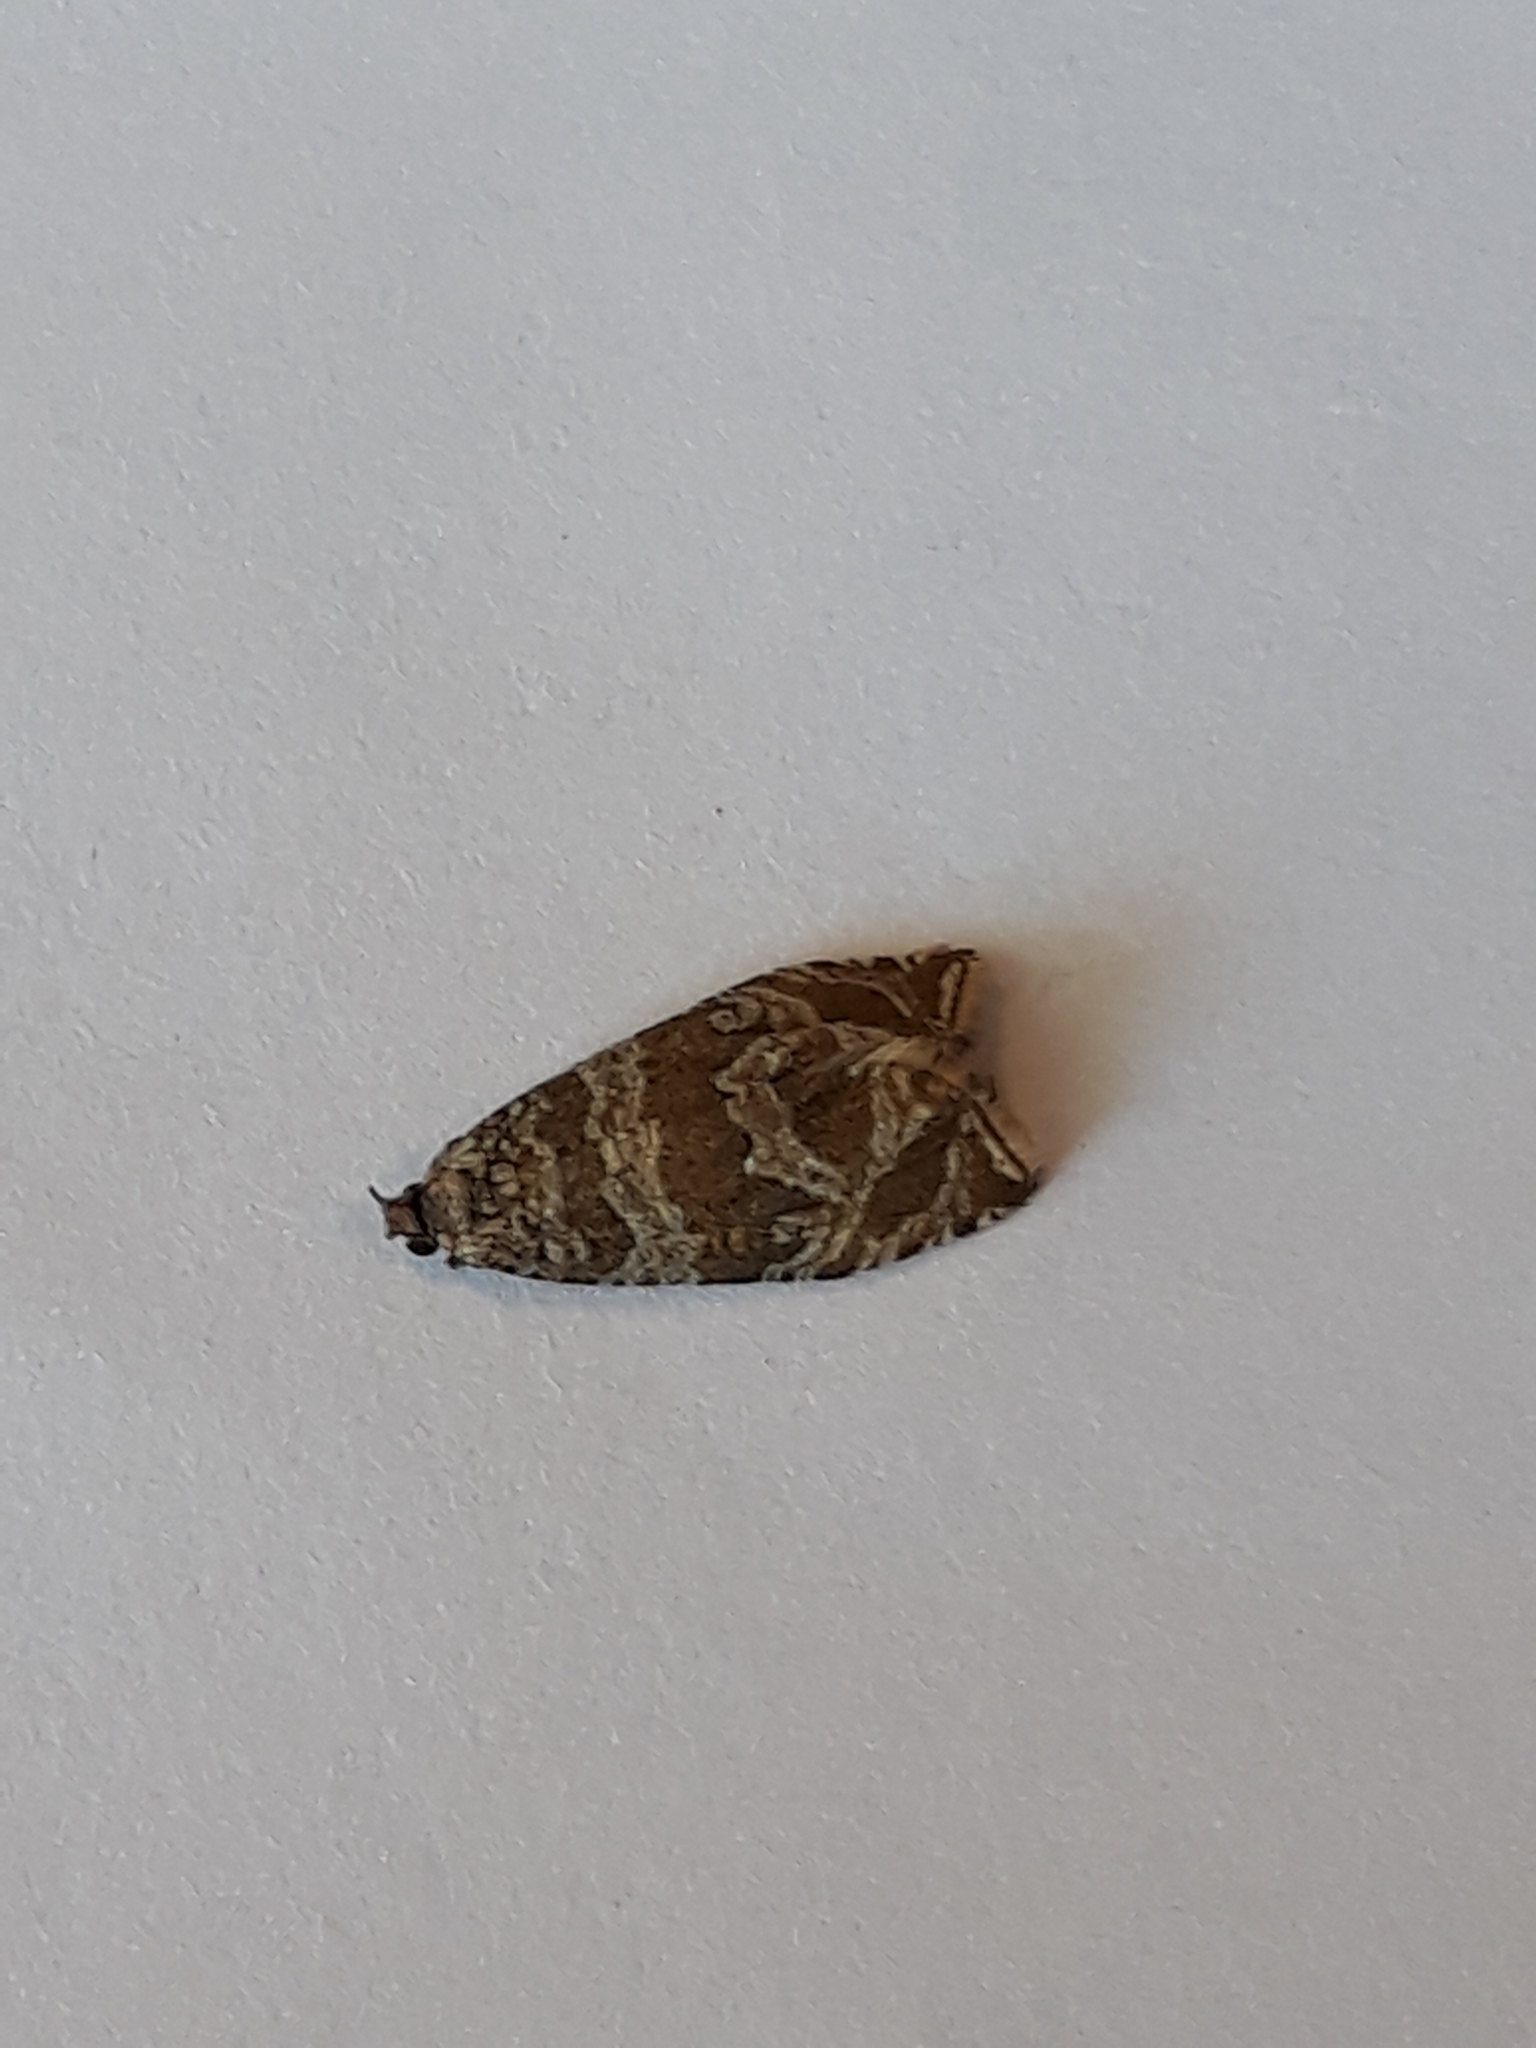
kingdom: Animalia
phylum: Arthropoda
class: Insecta
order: Lepidoptera
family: Tortricidae
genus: Syricoris
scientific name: Syricoris rivulana
